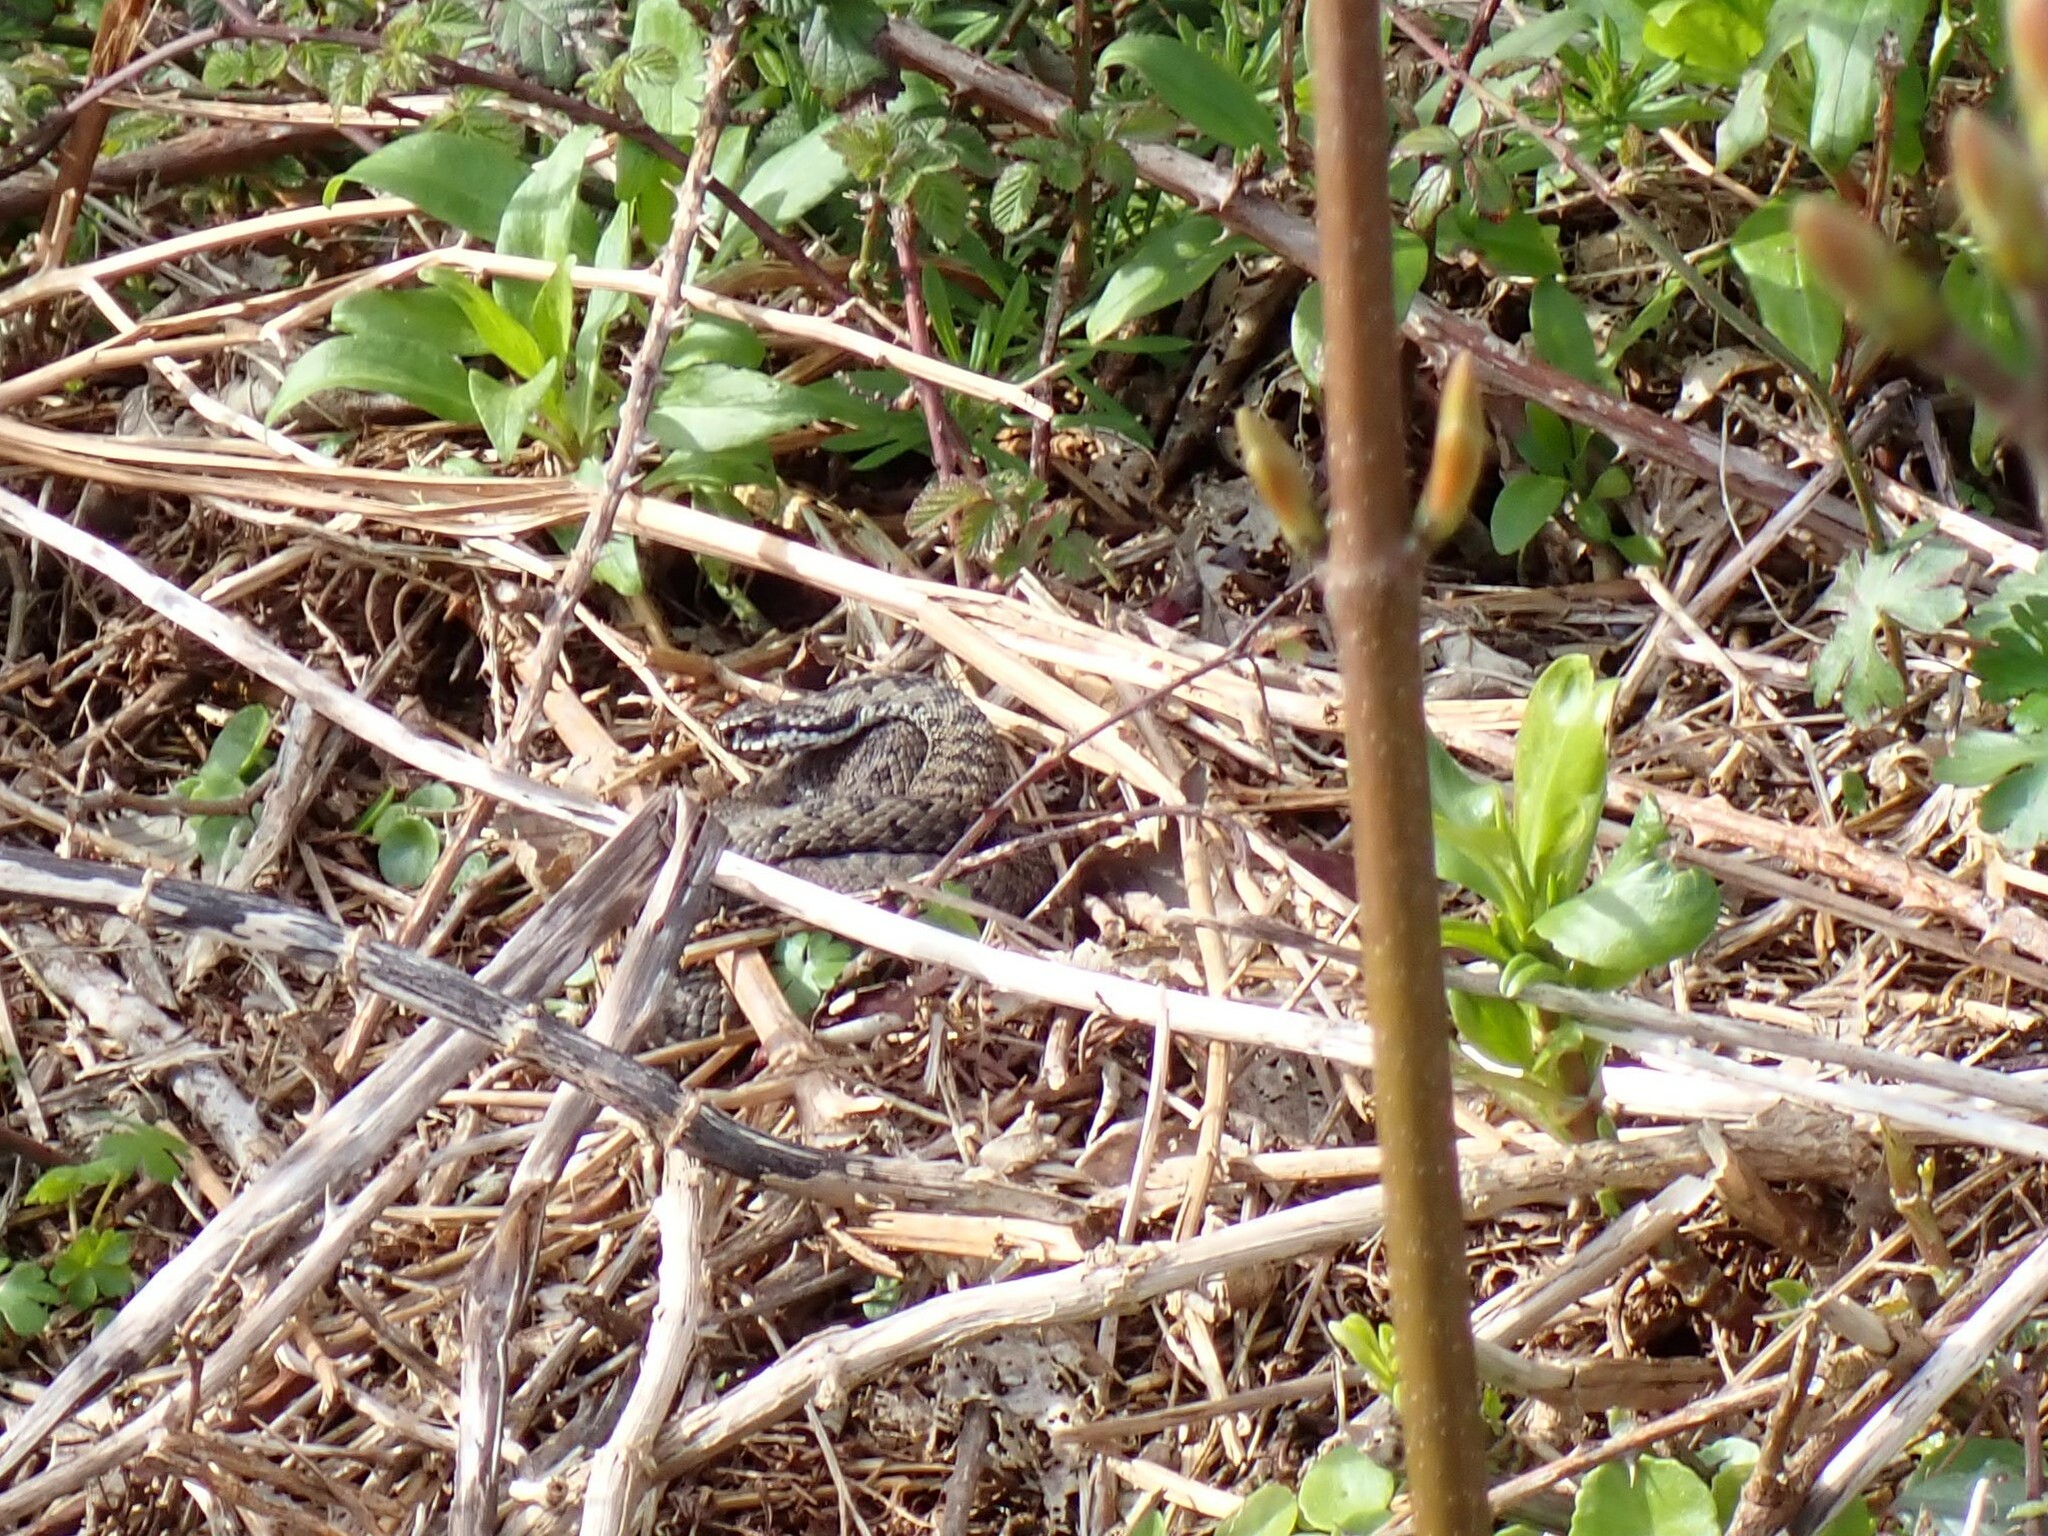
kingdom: Animalia
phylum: Chordata
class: Squamata
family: Viperidae
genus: Vipera
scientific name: Vipera berus
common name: Adder
